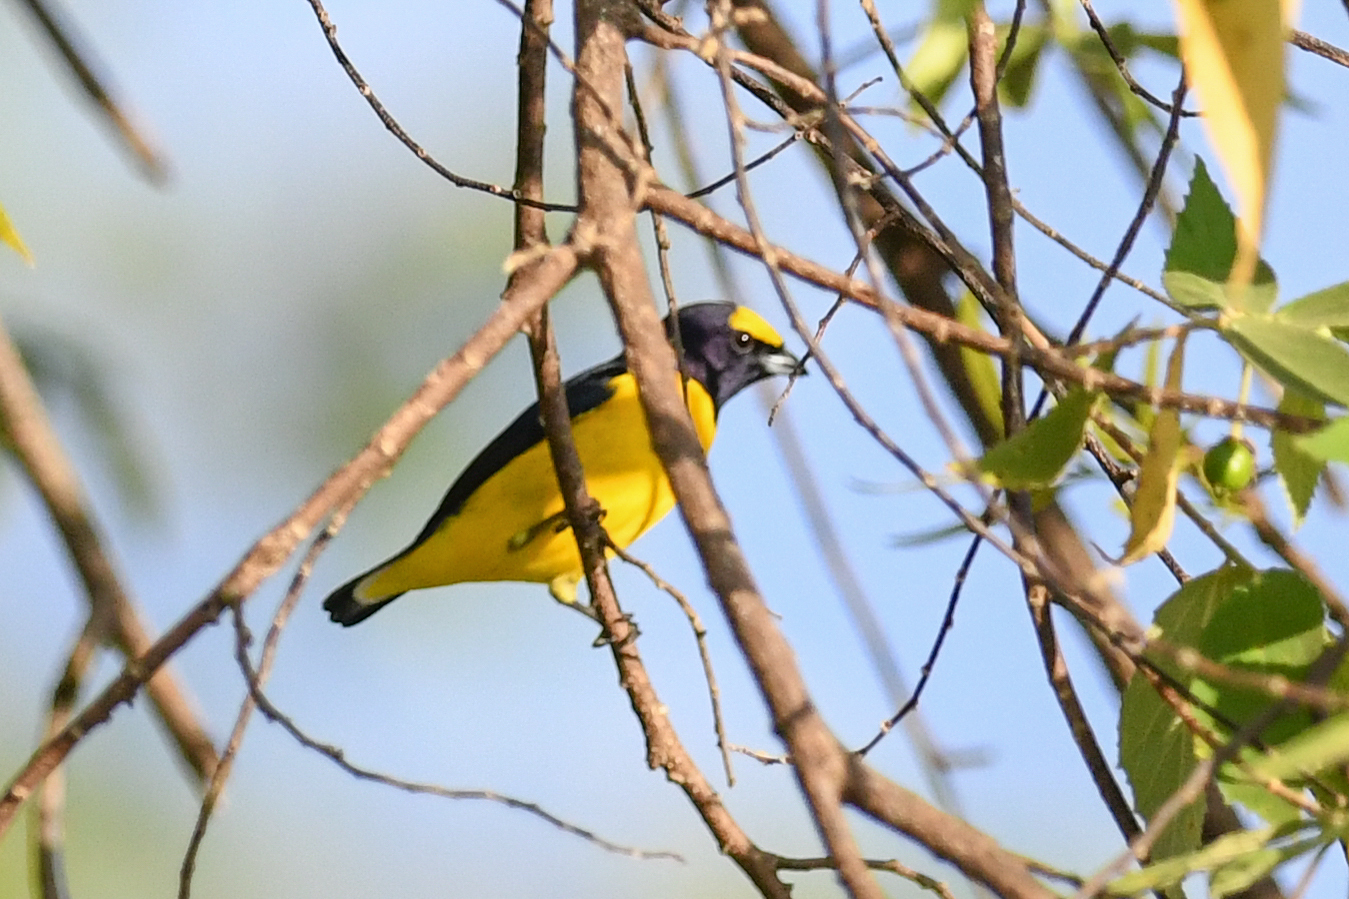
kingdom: Animalia
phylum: Chordata
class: Aves
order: Passeriformes
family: Fringillidae
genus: Euphonia
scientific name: Euphonia affinis
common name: Scrub euphonia
